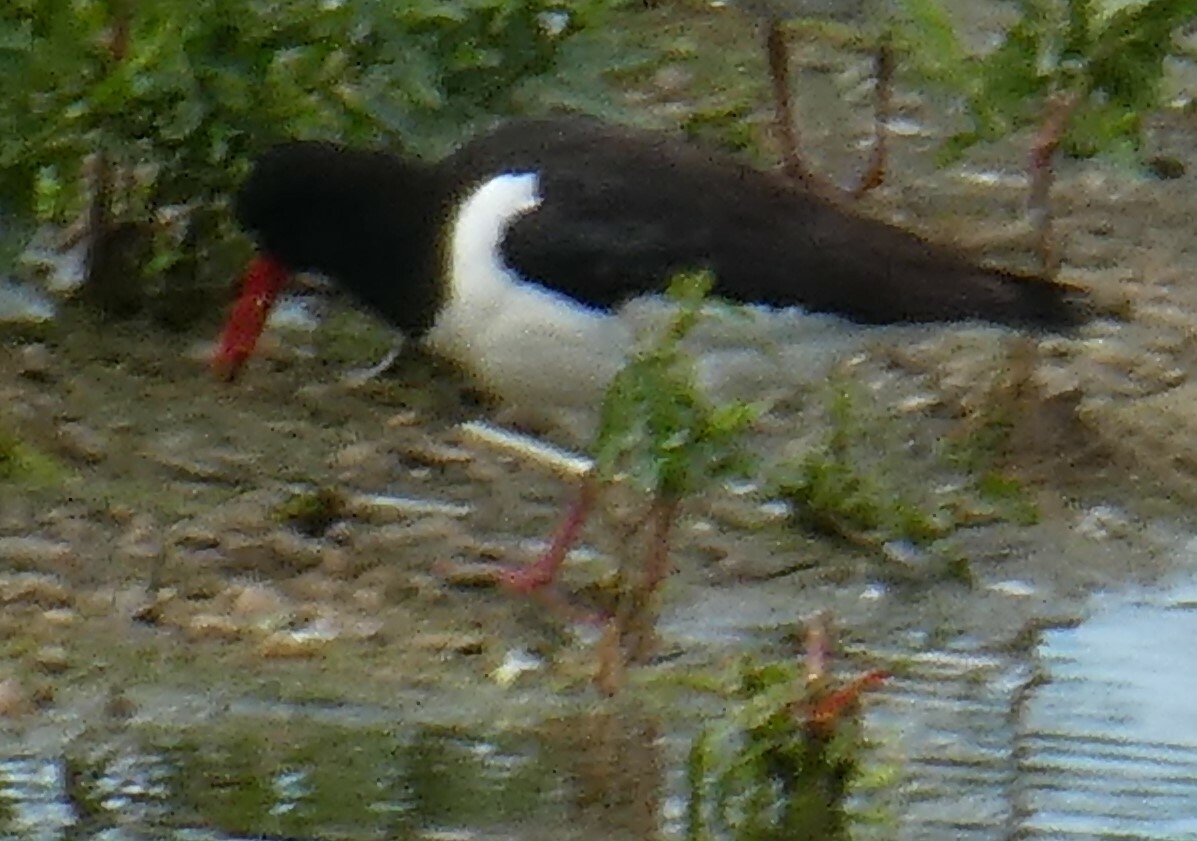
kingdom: Animalia
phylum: Chordata
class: Aves
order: Charadriiformes
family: Haematopodidae
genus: Haematopus
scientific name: Haematopus ostralegus
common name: Eurasian oystercatcher
